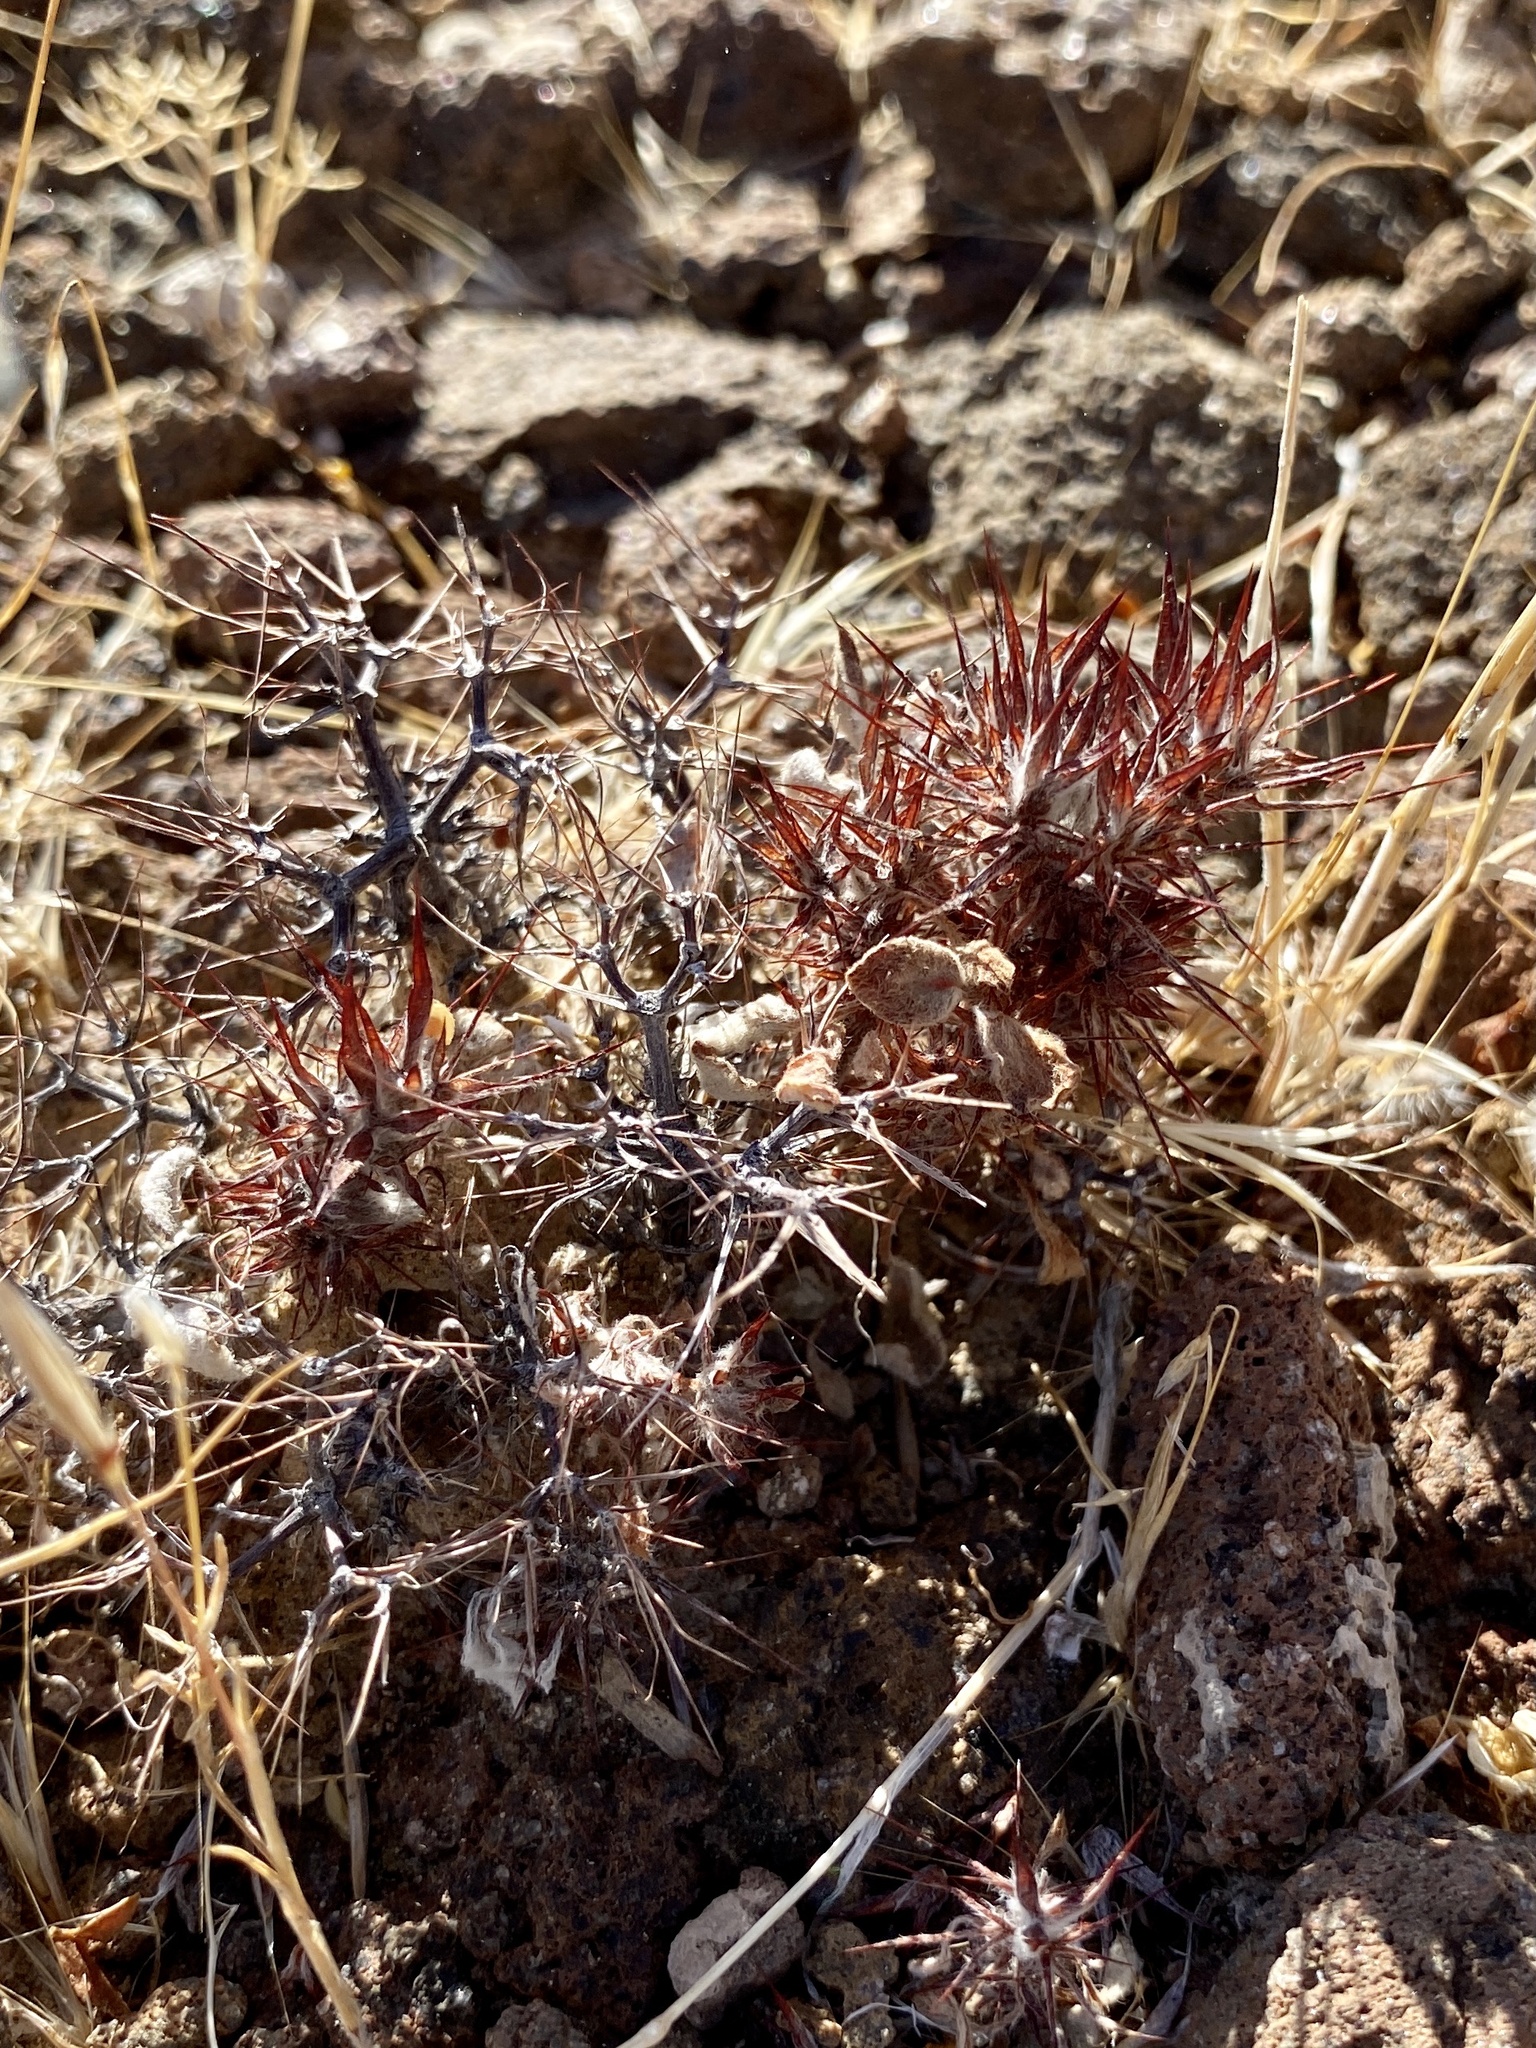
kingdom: Plantae
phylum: Tracheophyta
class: Magnoliopsida
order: Caryophyllales
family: Polygonaceae
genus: Chorizanthe
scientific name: Chorizanthe rigida
